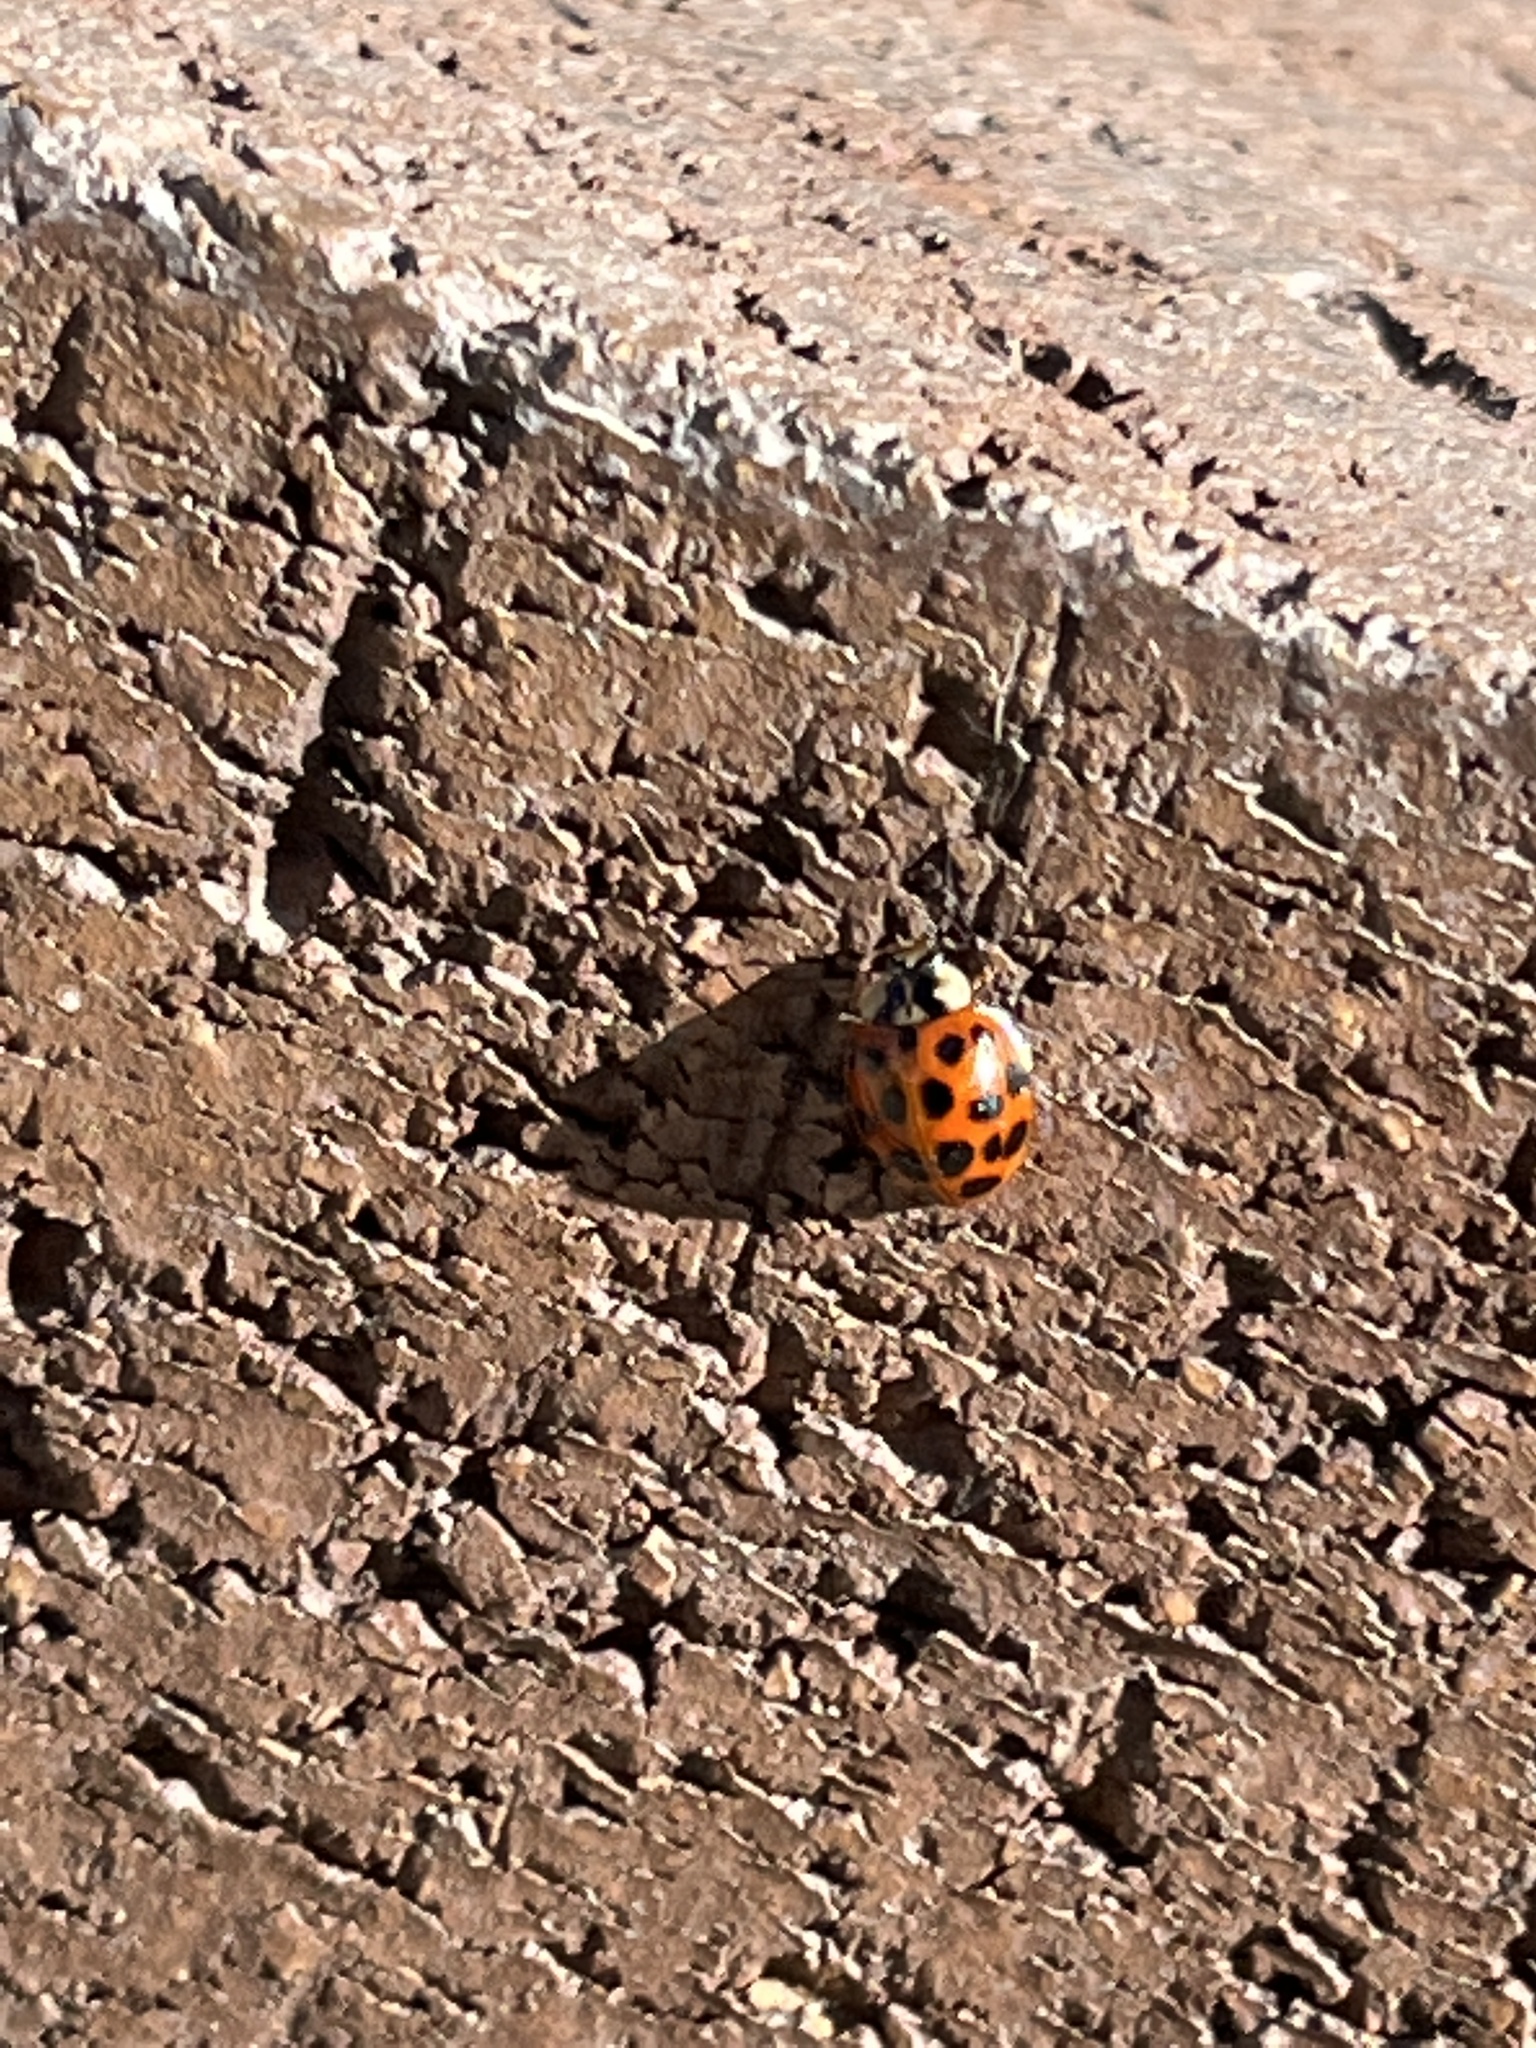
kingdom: Animalia
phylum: Arthropoda
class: Insecta
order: Coleoptera
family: Coccinellidae
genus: Harmonia
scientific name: Harmonia axyridis
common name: Harlequin ladybird
